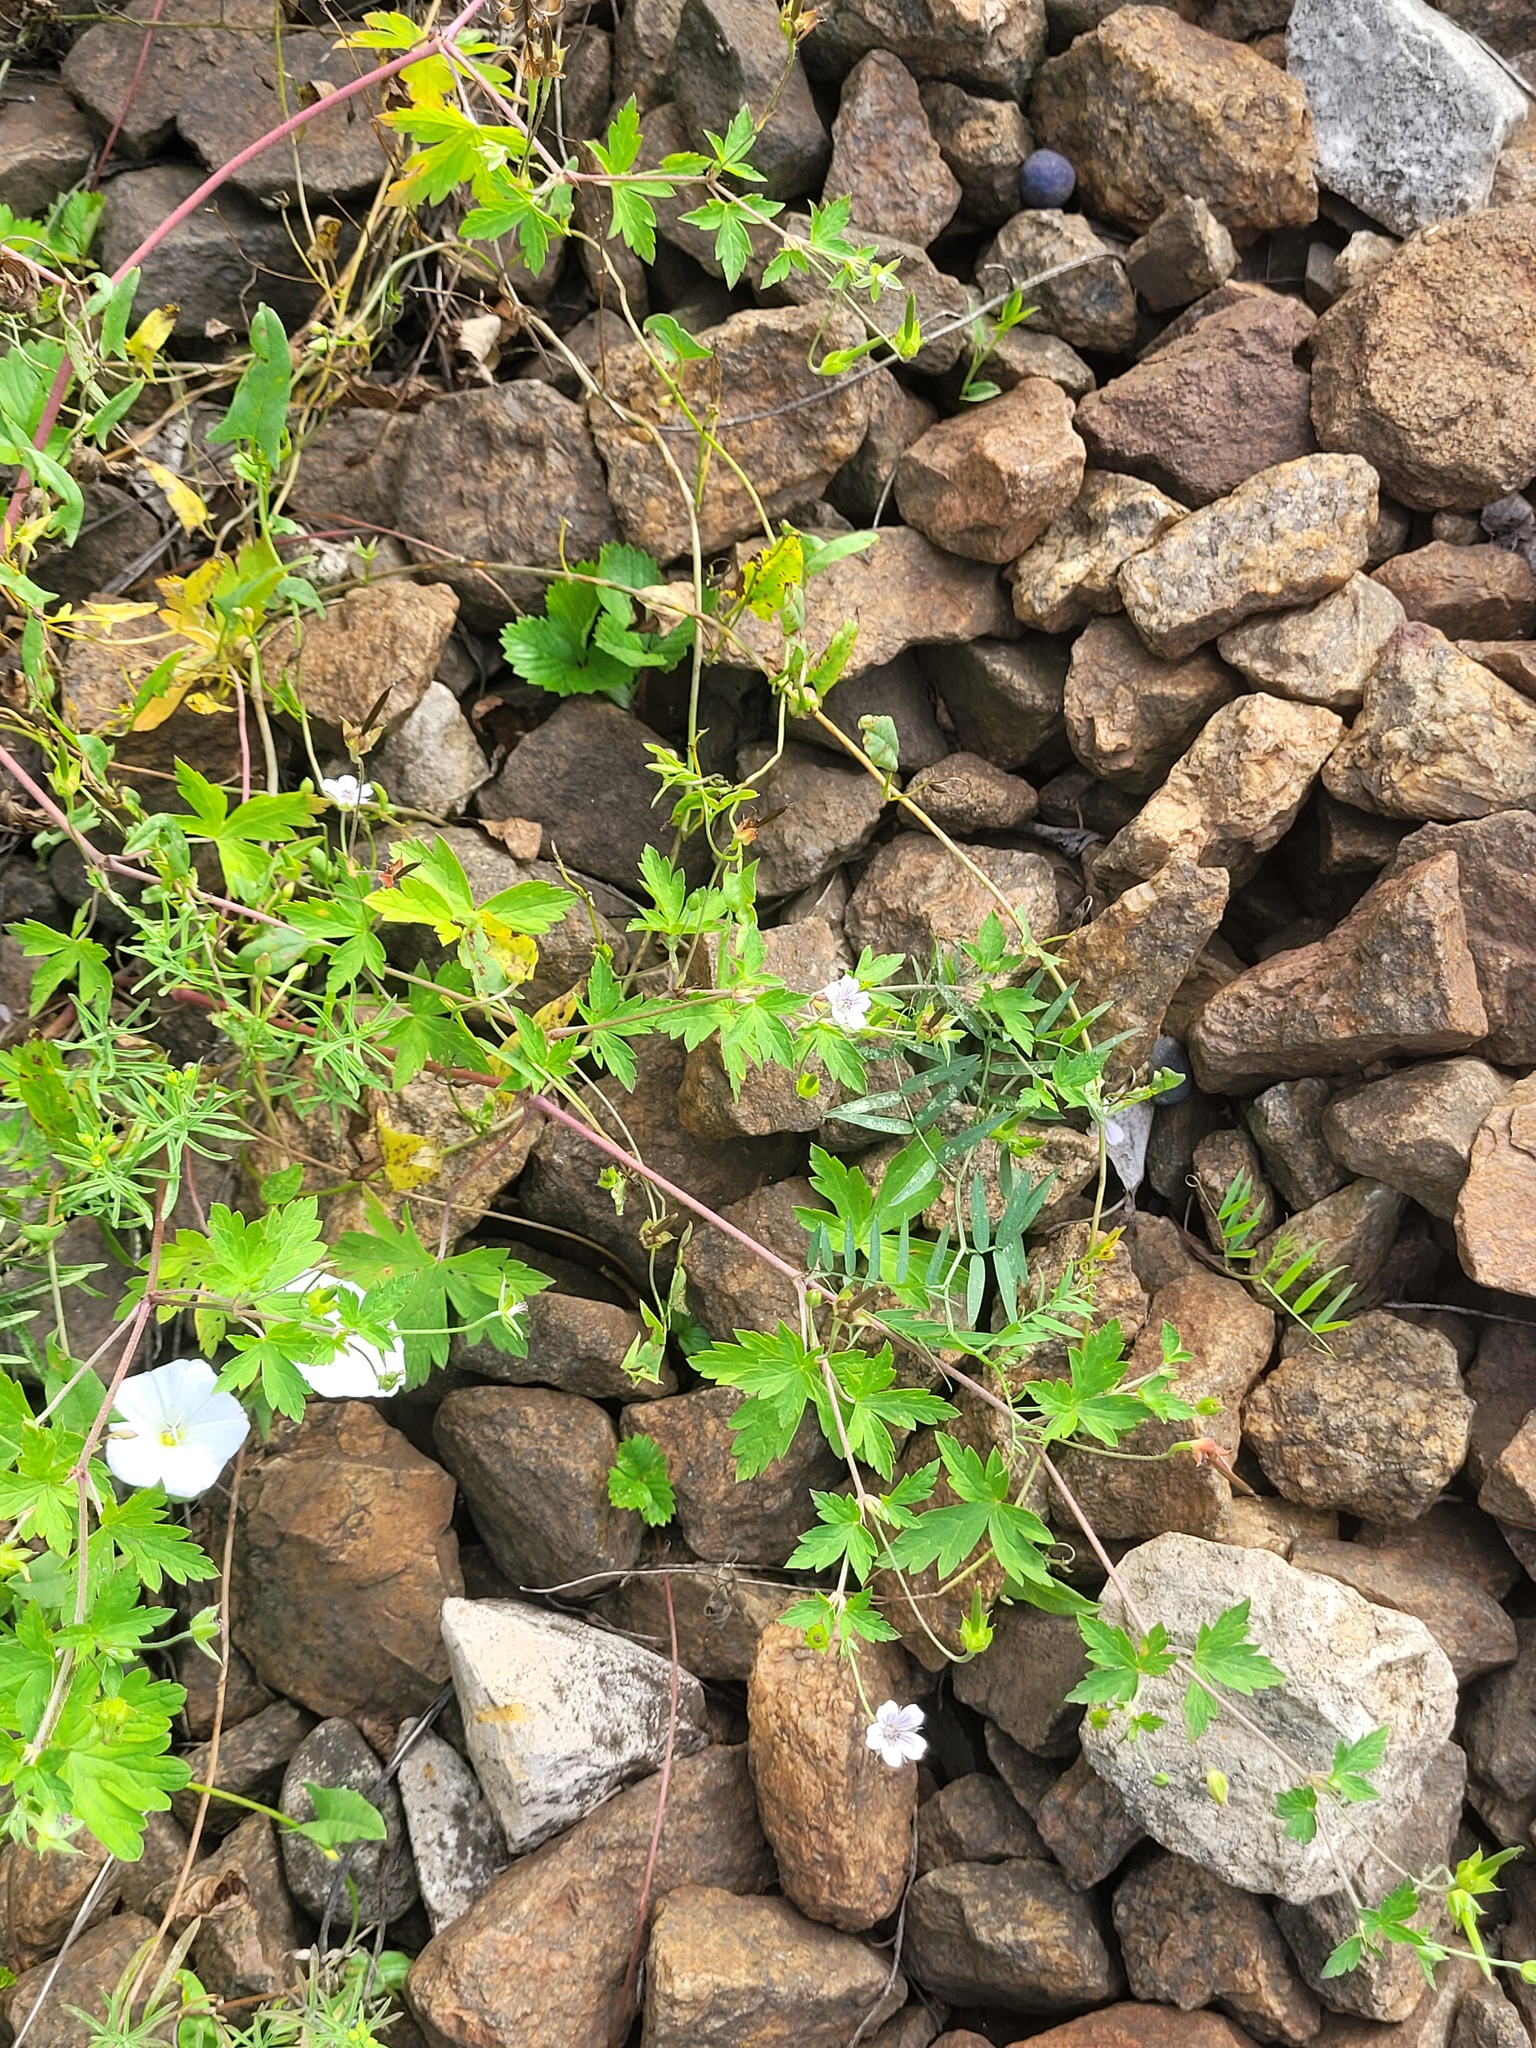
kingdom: Plantae
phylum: Tracheophyta
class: Magnoliopsida
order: Geraniales
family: Geraniaceae
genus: Geranium
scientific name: Geranium sibiricum
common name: Siberian crane's-bill
